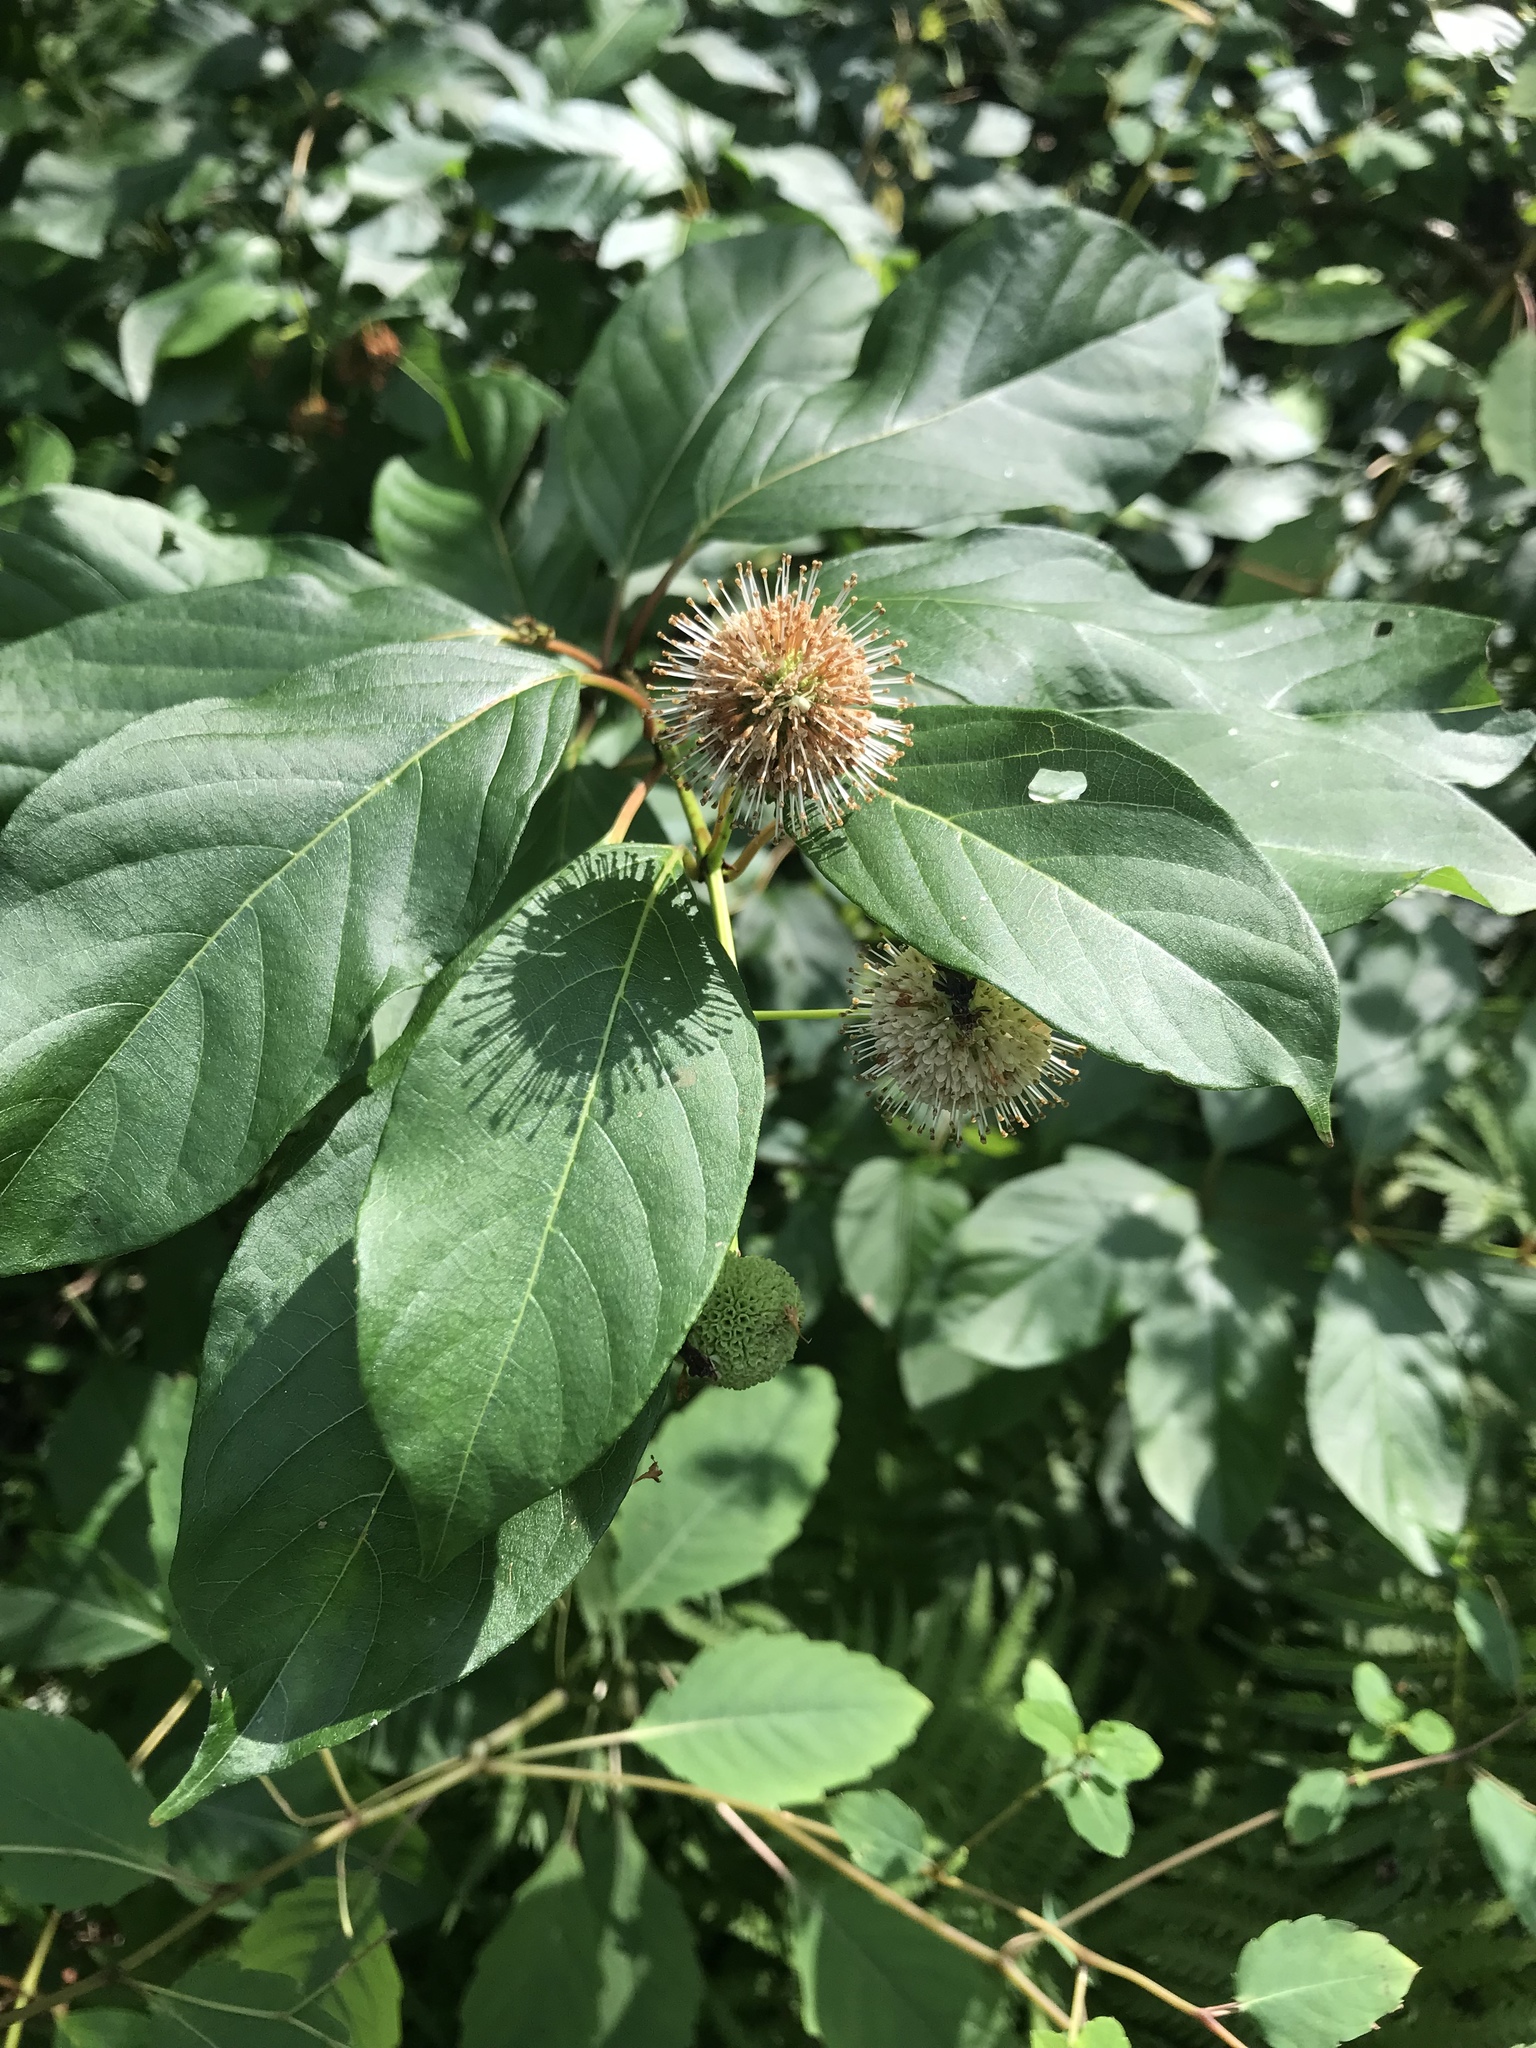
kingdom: Plantae
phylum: Tracheophyta
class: Magnoliopsida
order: Gentianales
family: Rubiaceae
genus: Cephalanthus
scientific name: Cephalanthus occidentalis
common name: Button-willow
